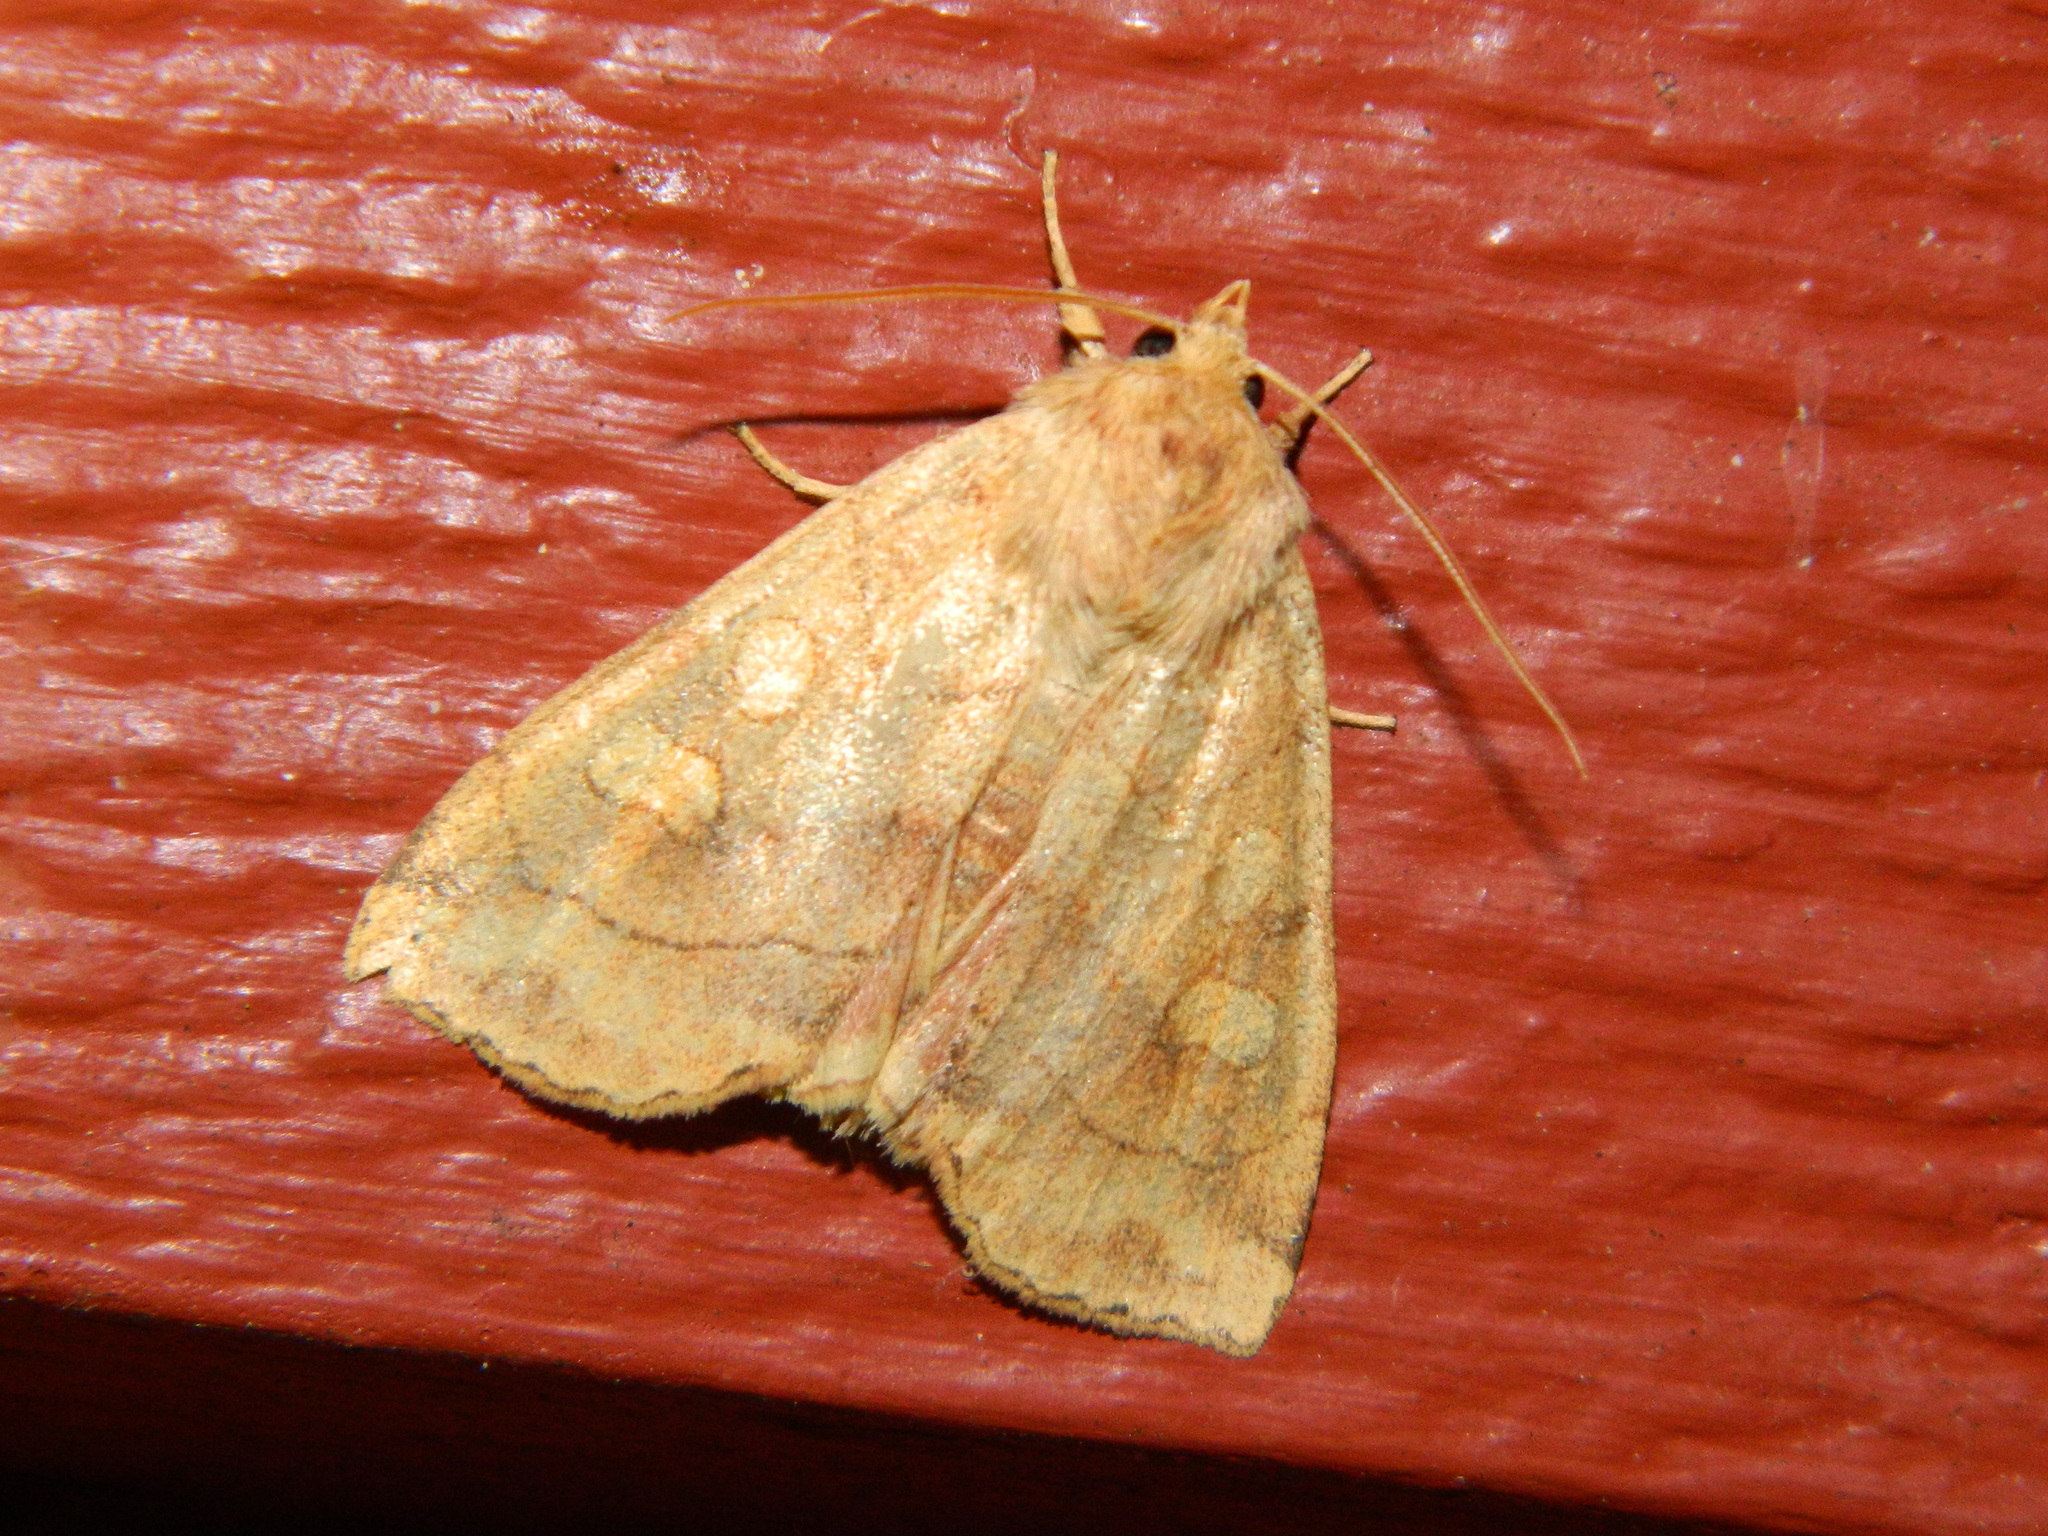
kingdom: Animalia
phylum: Arthropoda
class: Insecta
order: Lepidoptera
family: Noctuidae
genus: Enargia
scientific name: Enargia decolor
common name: Aspen twoleaf tier moth
